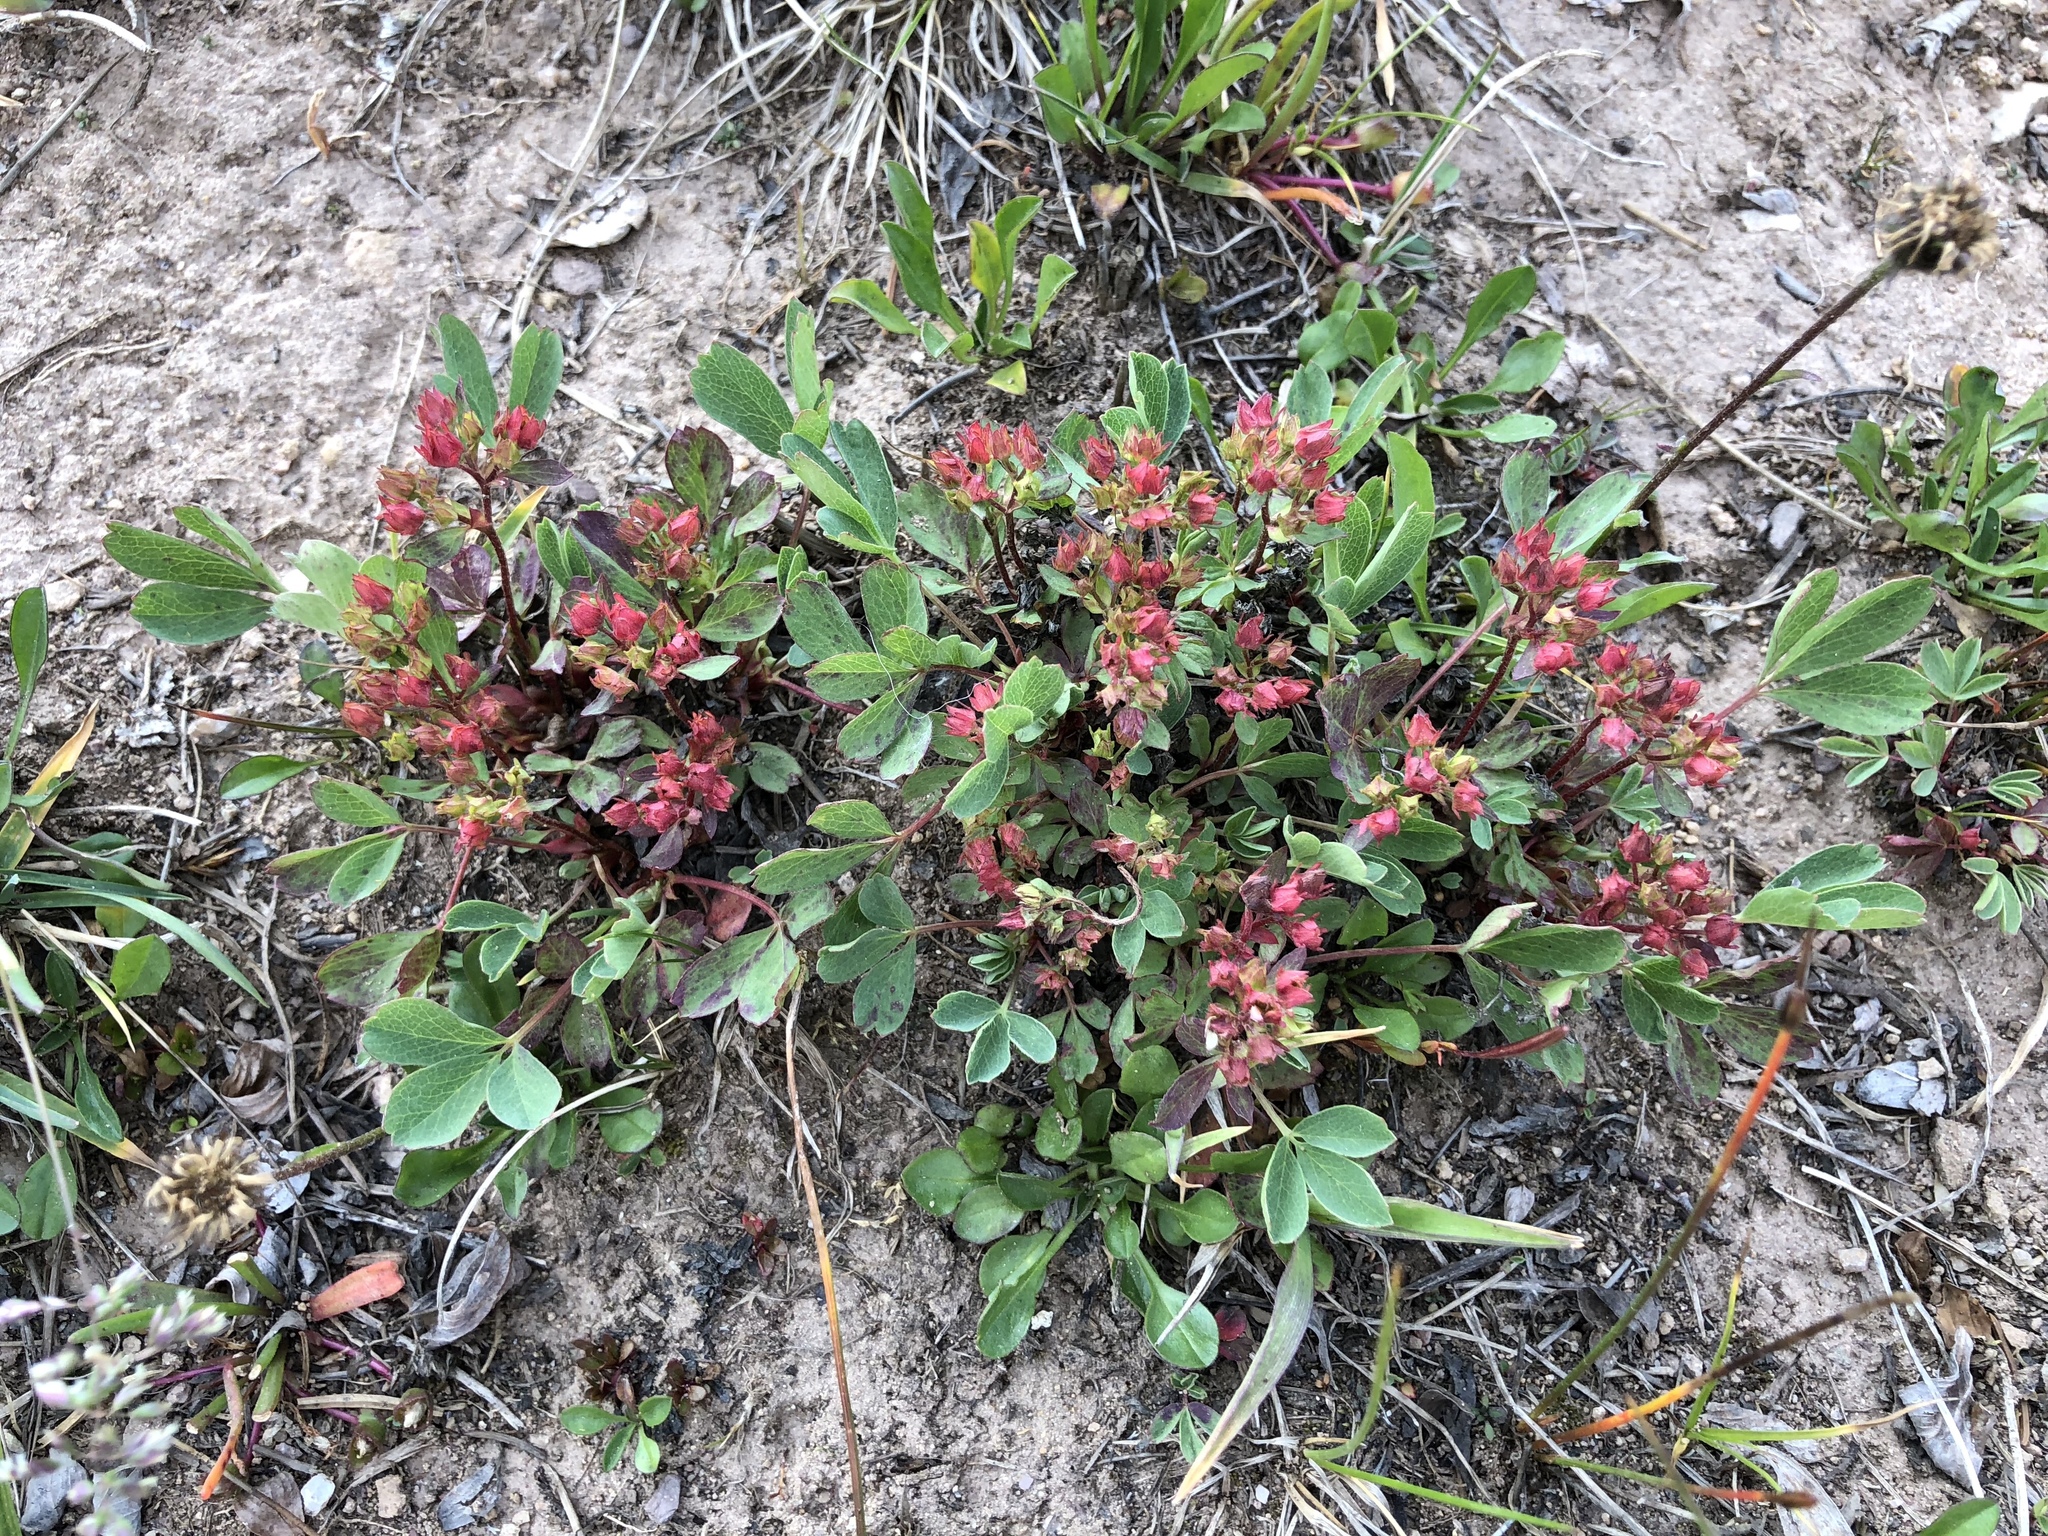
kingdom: Plantae
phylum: Tracheophyta
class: Magnoliopsida
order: Rosales
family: Rosaceae
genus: Sibbaldia
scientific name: Sibbaldia procumbens
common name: Creeping sibbaldia
